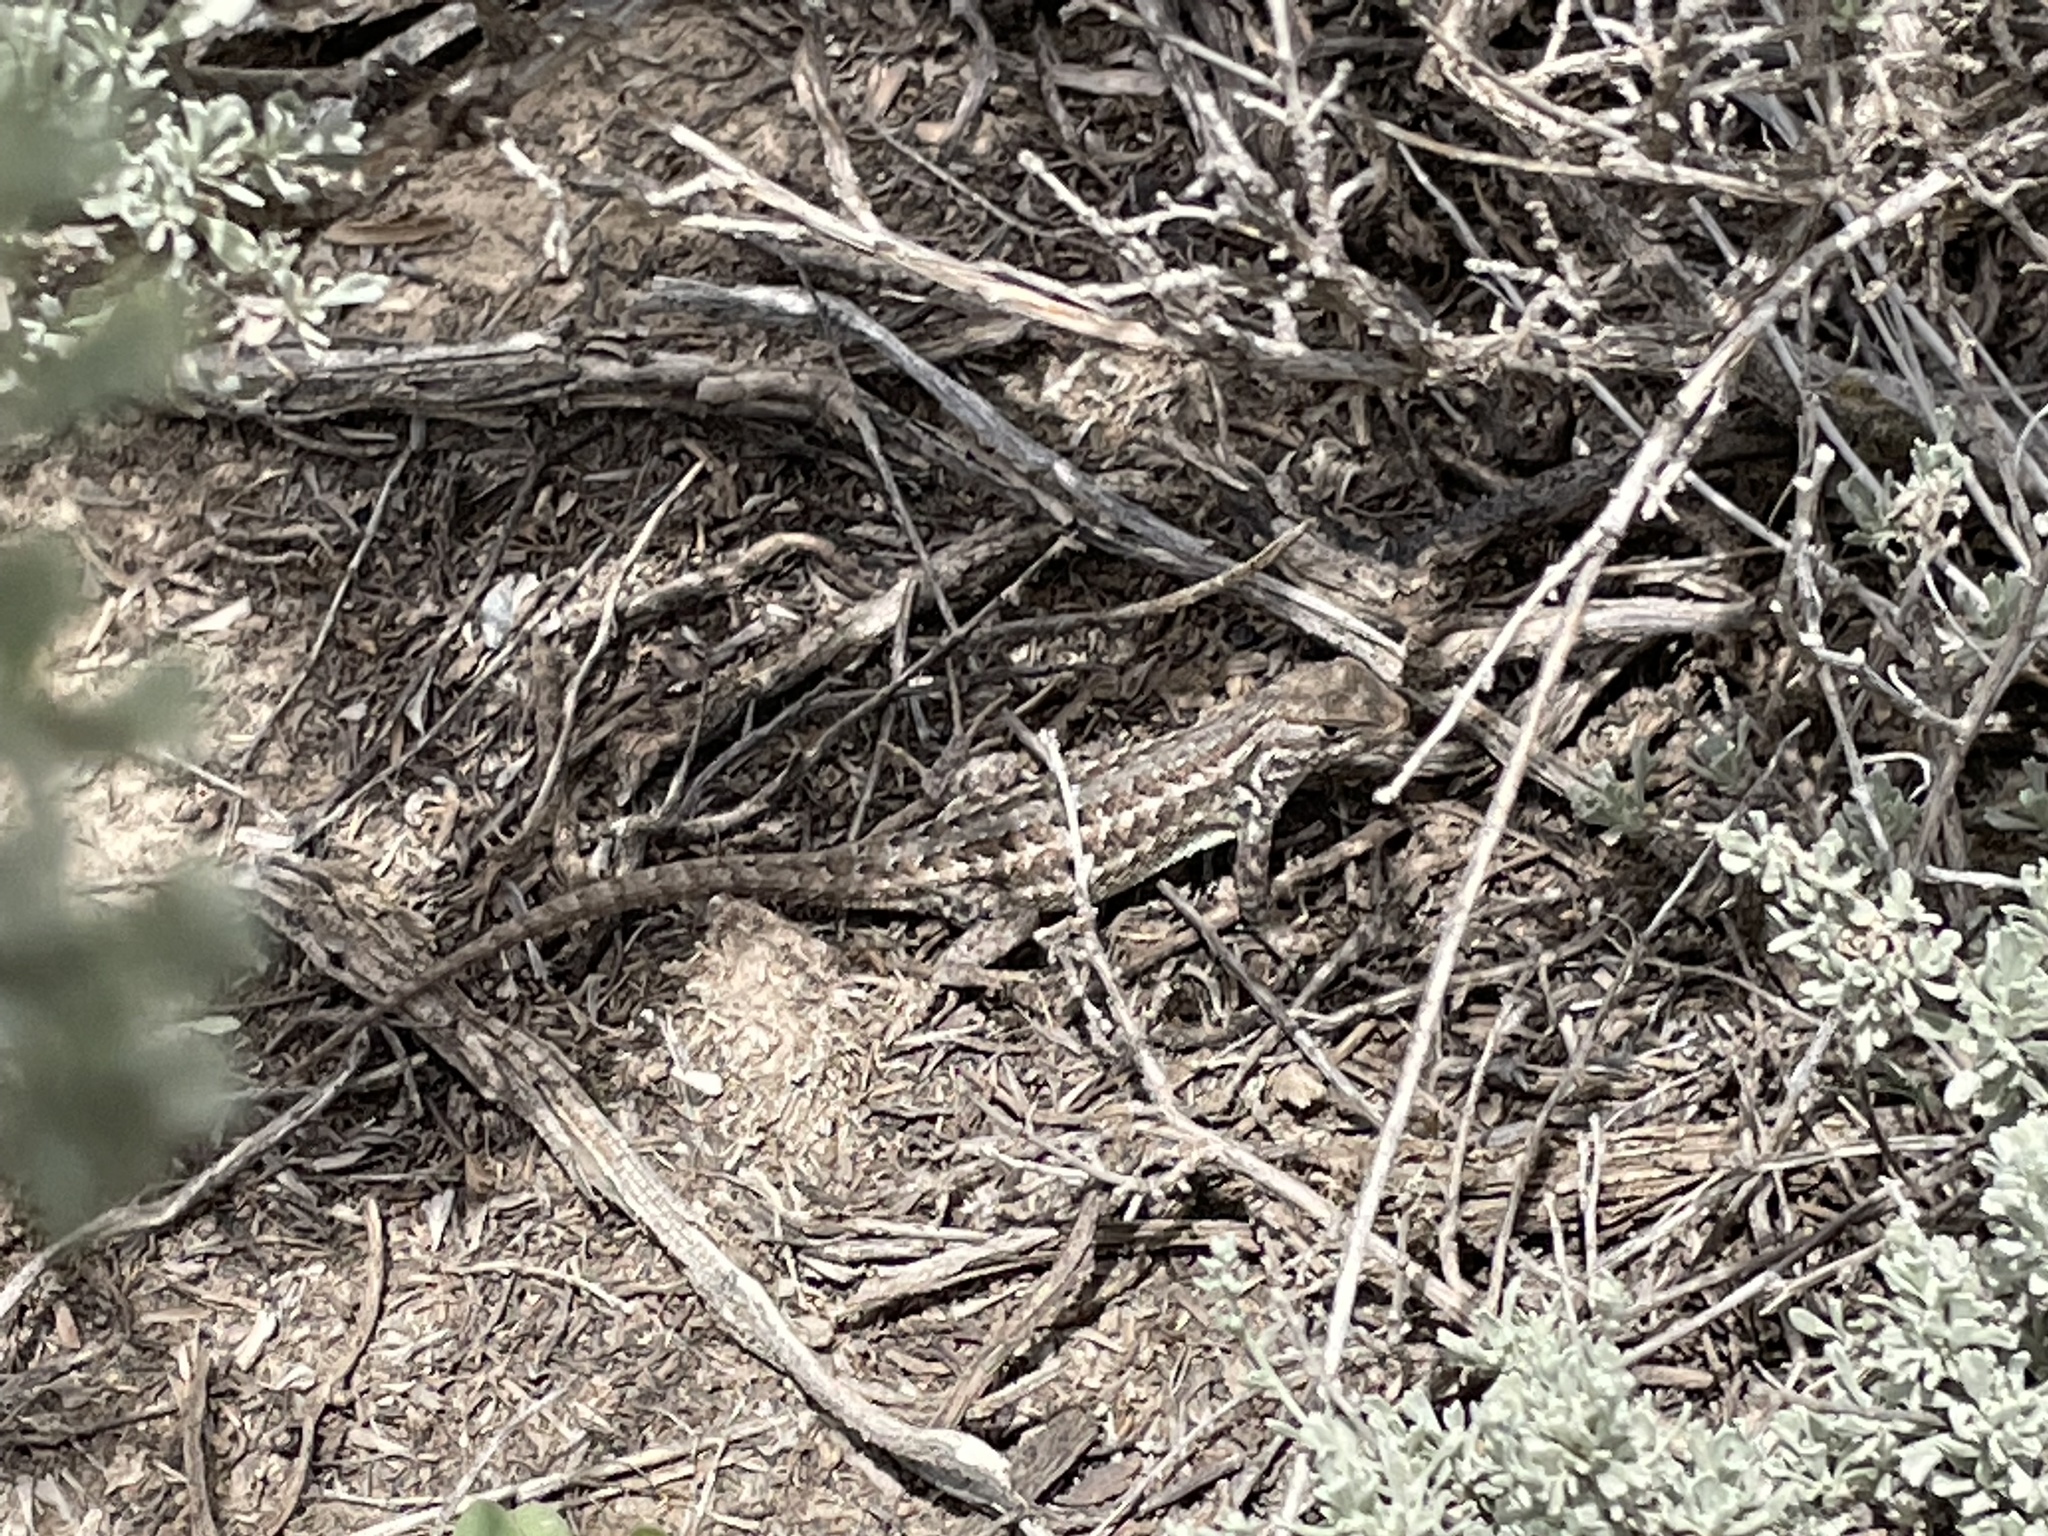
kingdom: Animalia
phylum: Chordata
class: Squamata
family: Phrynosomatidae
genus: Sceloporus
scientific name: Sceloporus tristichus
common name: Plateau fence lizard
